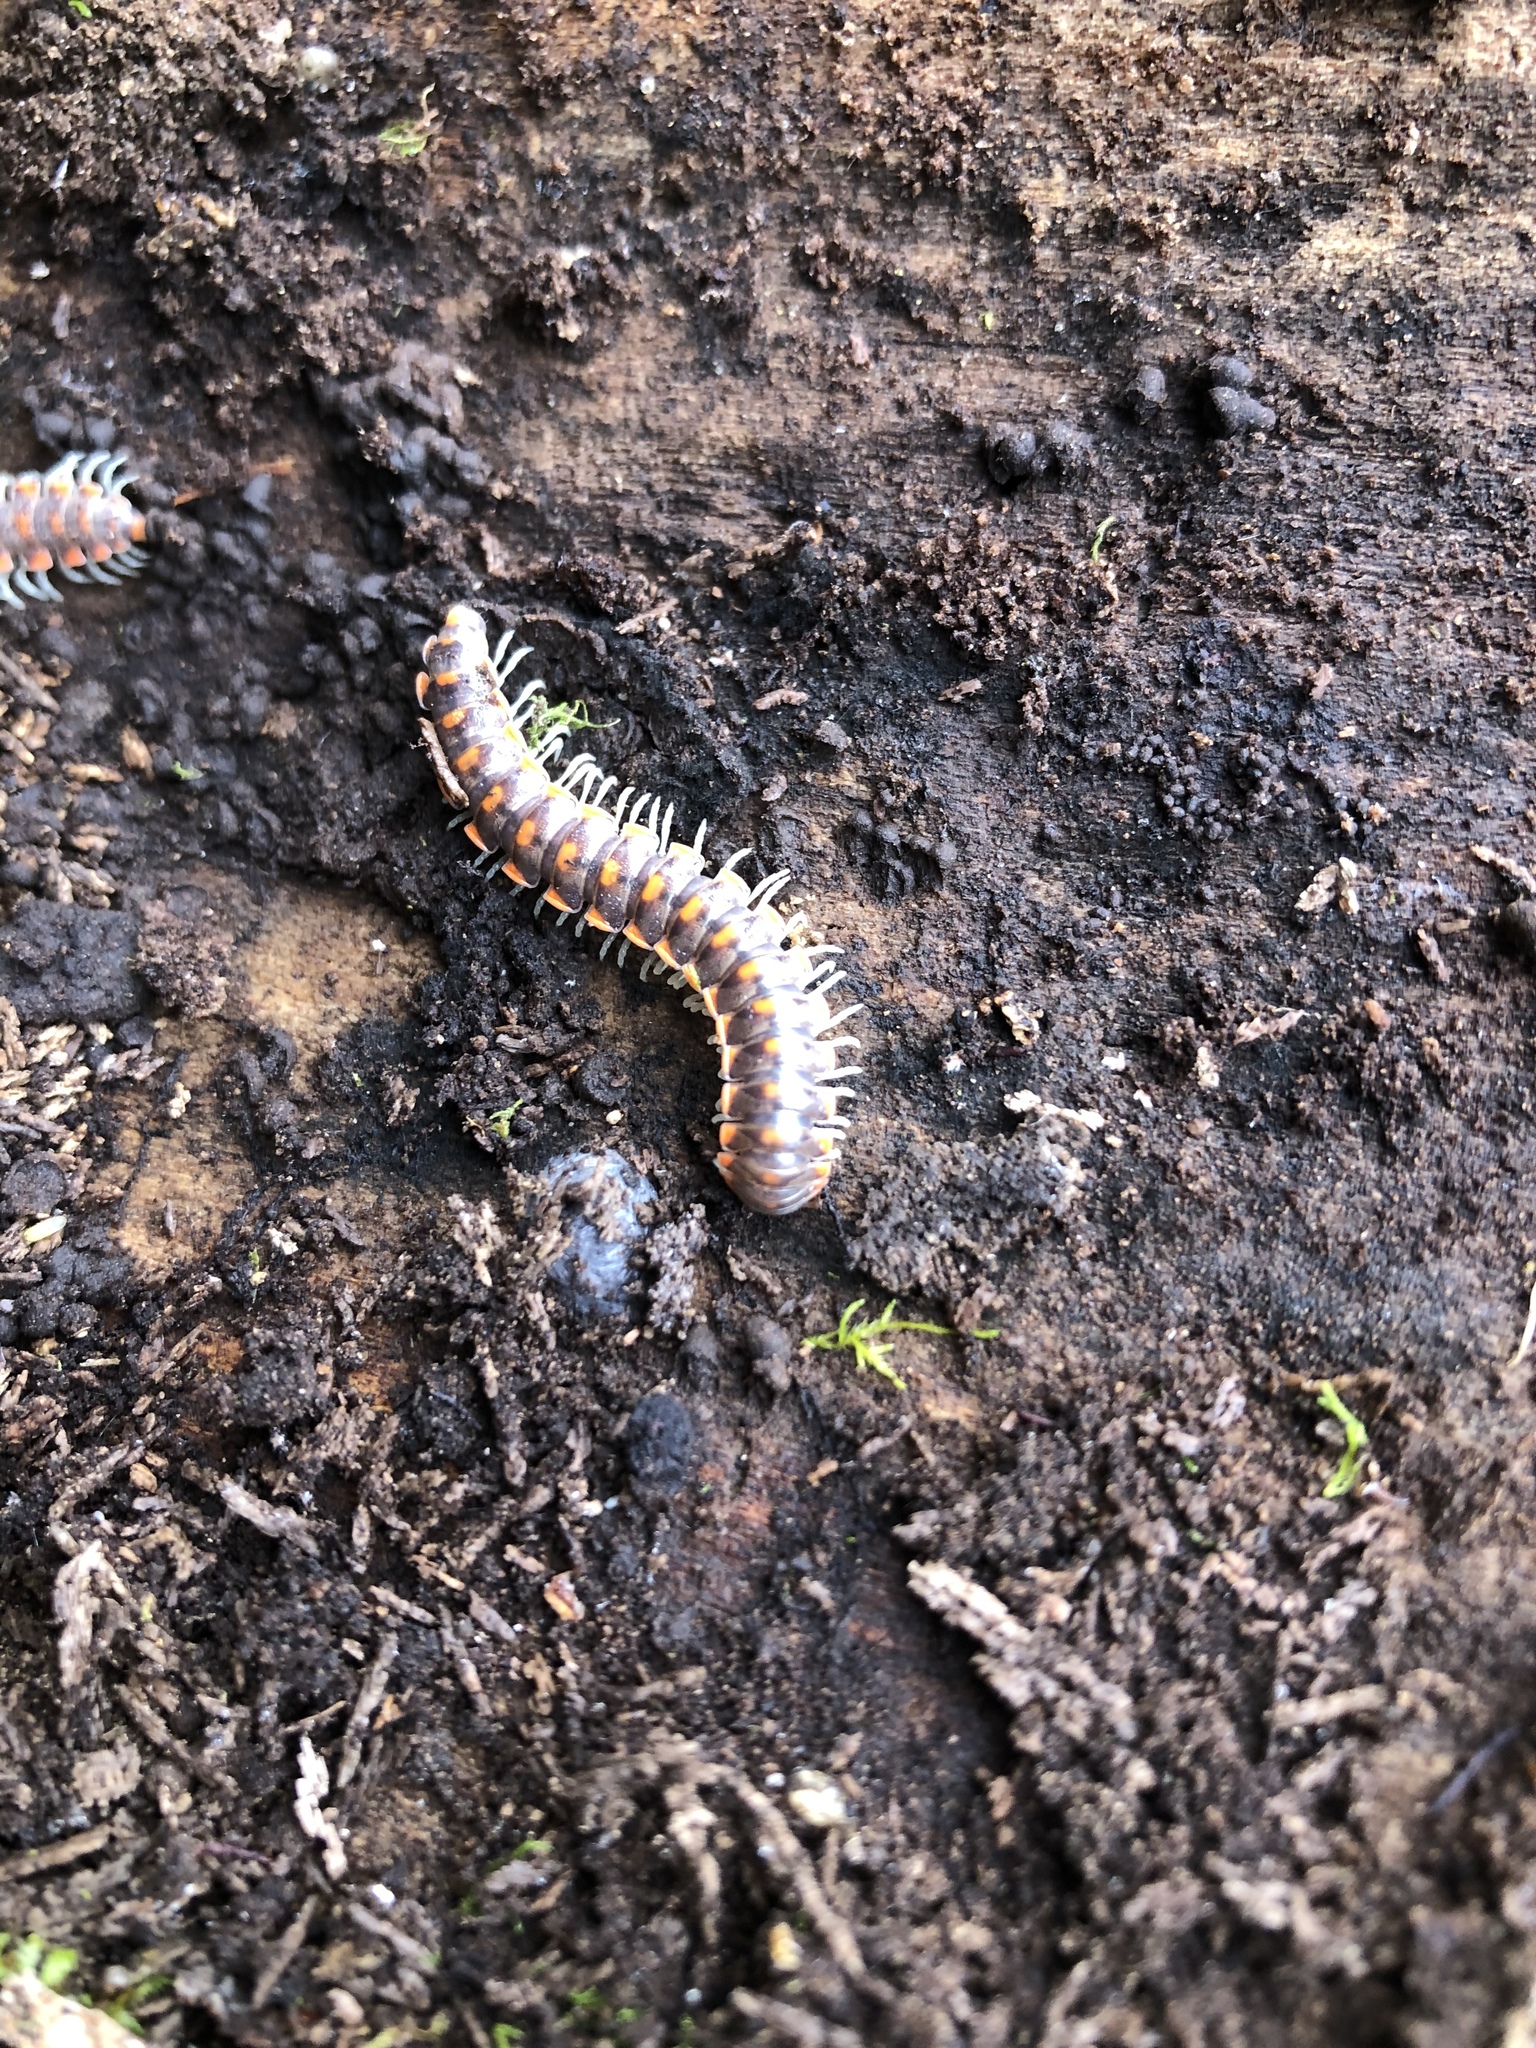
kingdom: Animalia
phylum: Arthropoda
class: Diplopoda
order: Polydesmida
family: Xystodesmidae
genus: Euryurus
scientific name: Euryurus leachii
